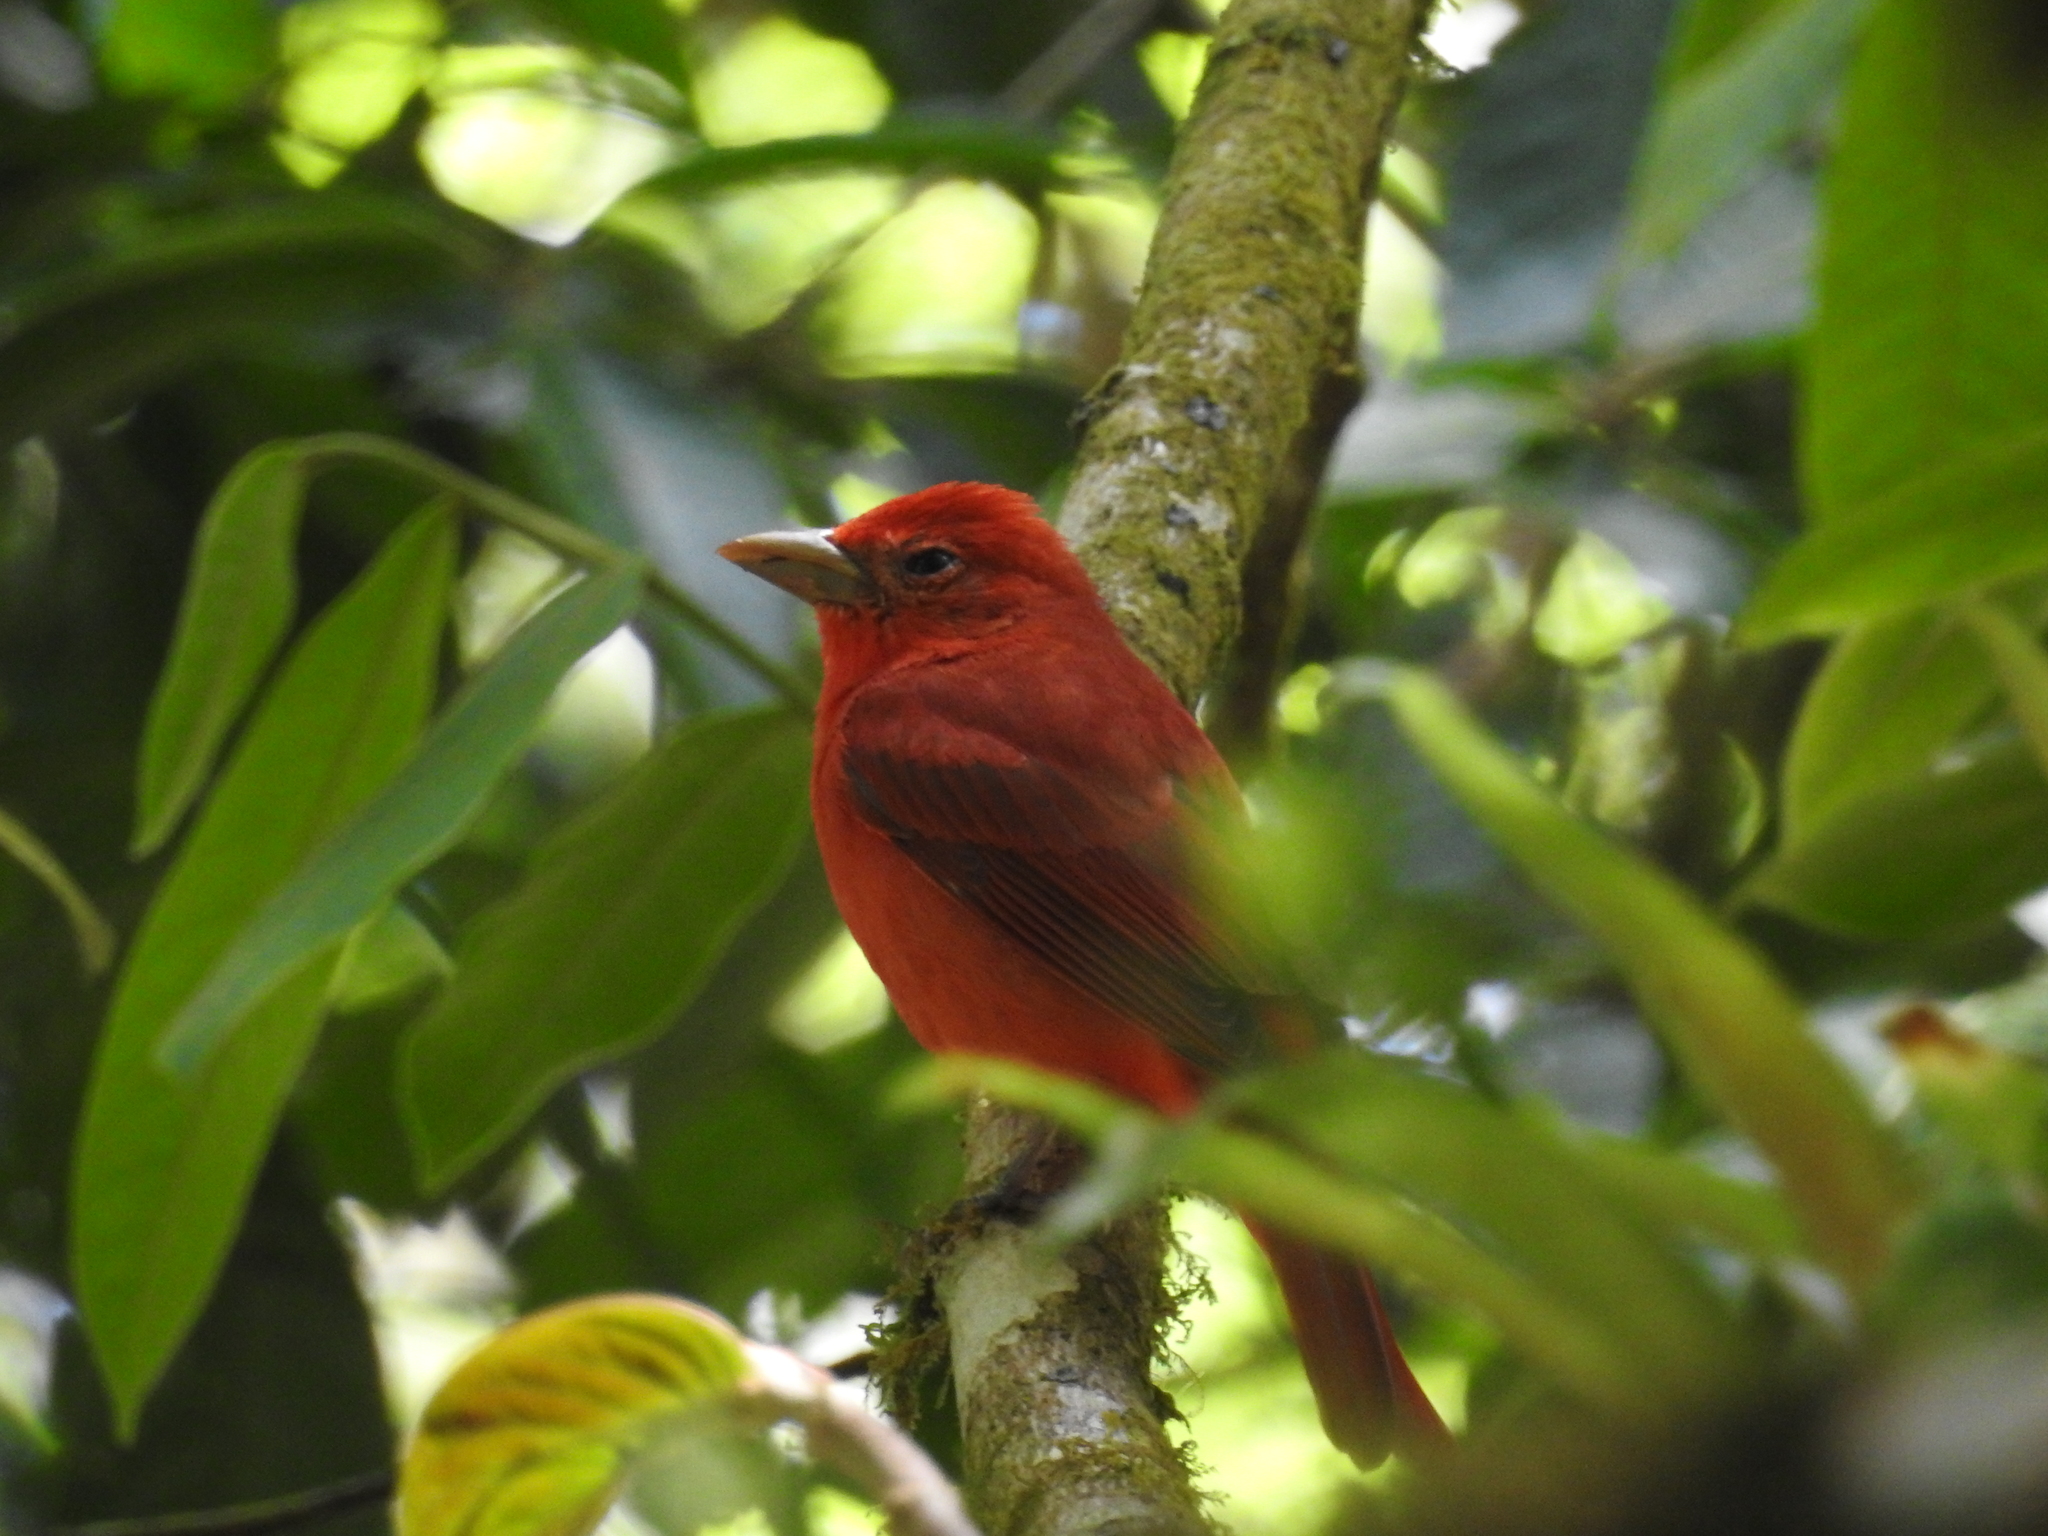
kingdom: Animalia
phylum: Chordata
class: Aves
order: Passeriformes
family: Cardinalidae
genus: Piranga
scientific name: Piranga rubra
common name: Summer tanager
